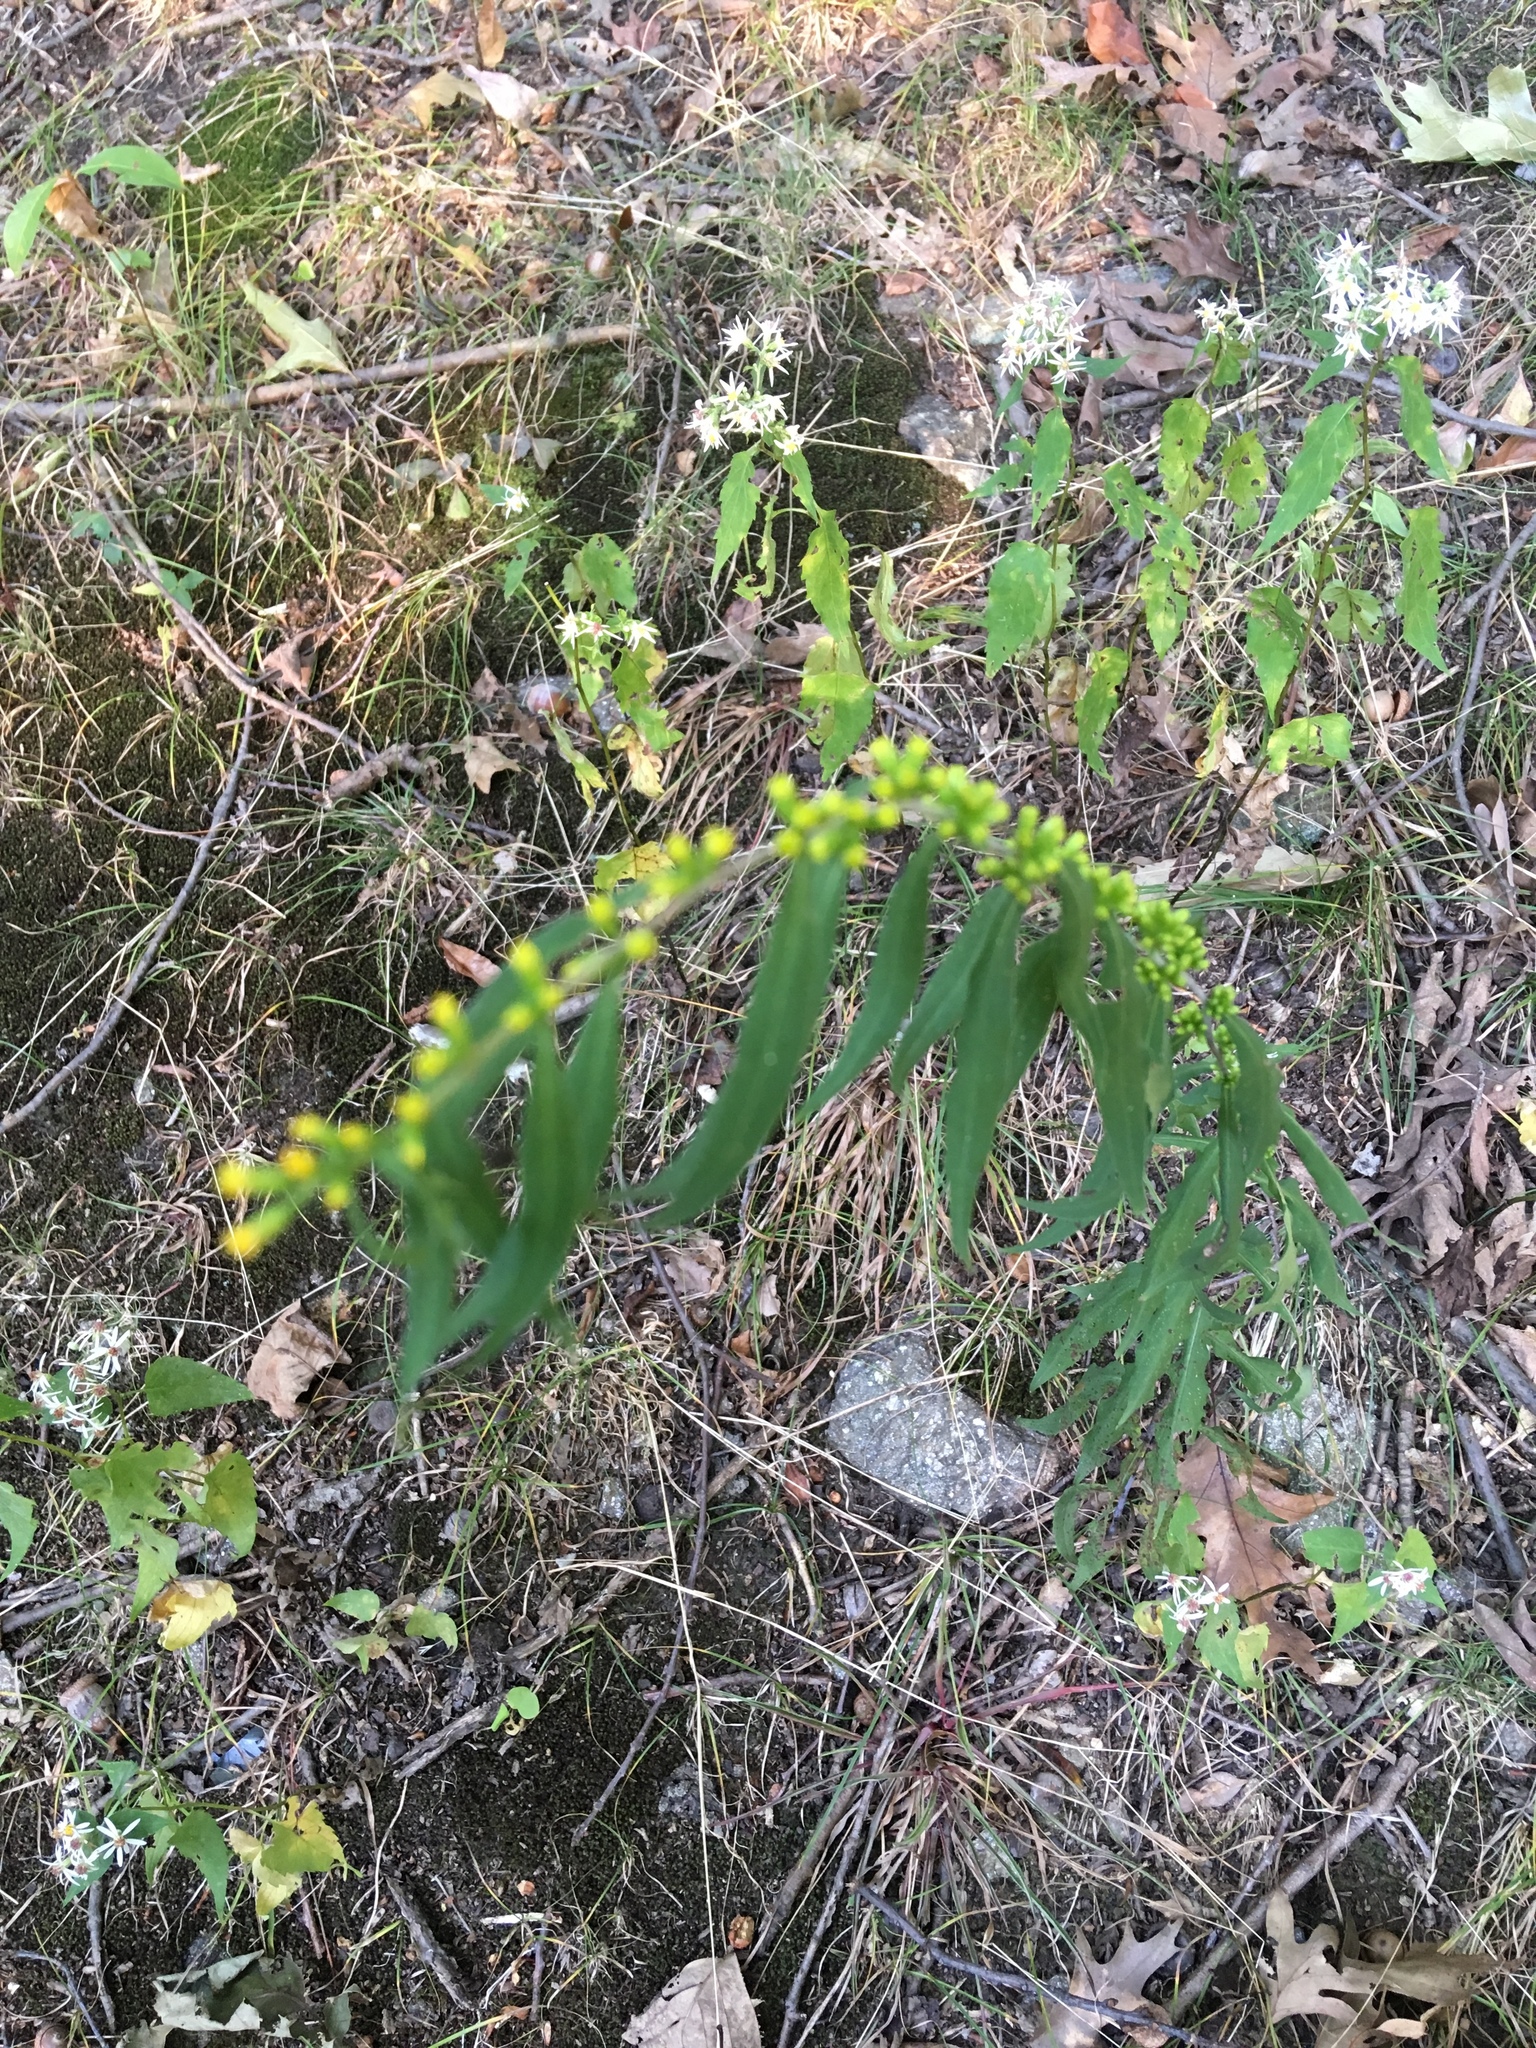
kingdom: Plantae
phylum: Tracheophyta
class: Magnoliopsida
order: Asterales
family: Asteraceae
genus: Solidago
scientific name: Solidago caesia
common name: Woodland goldenrod
